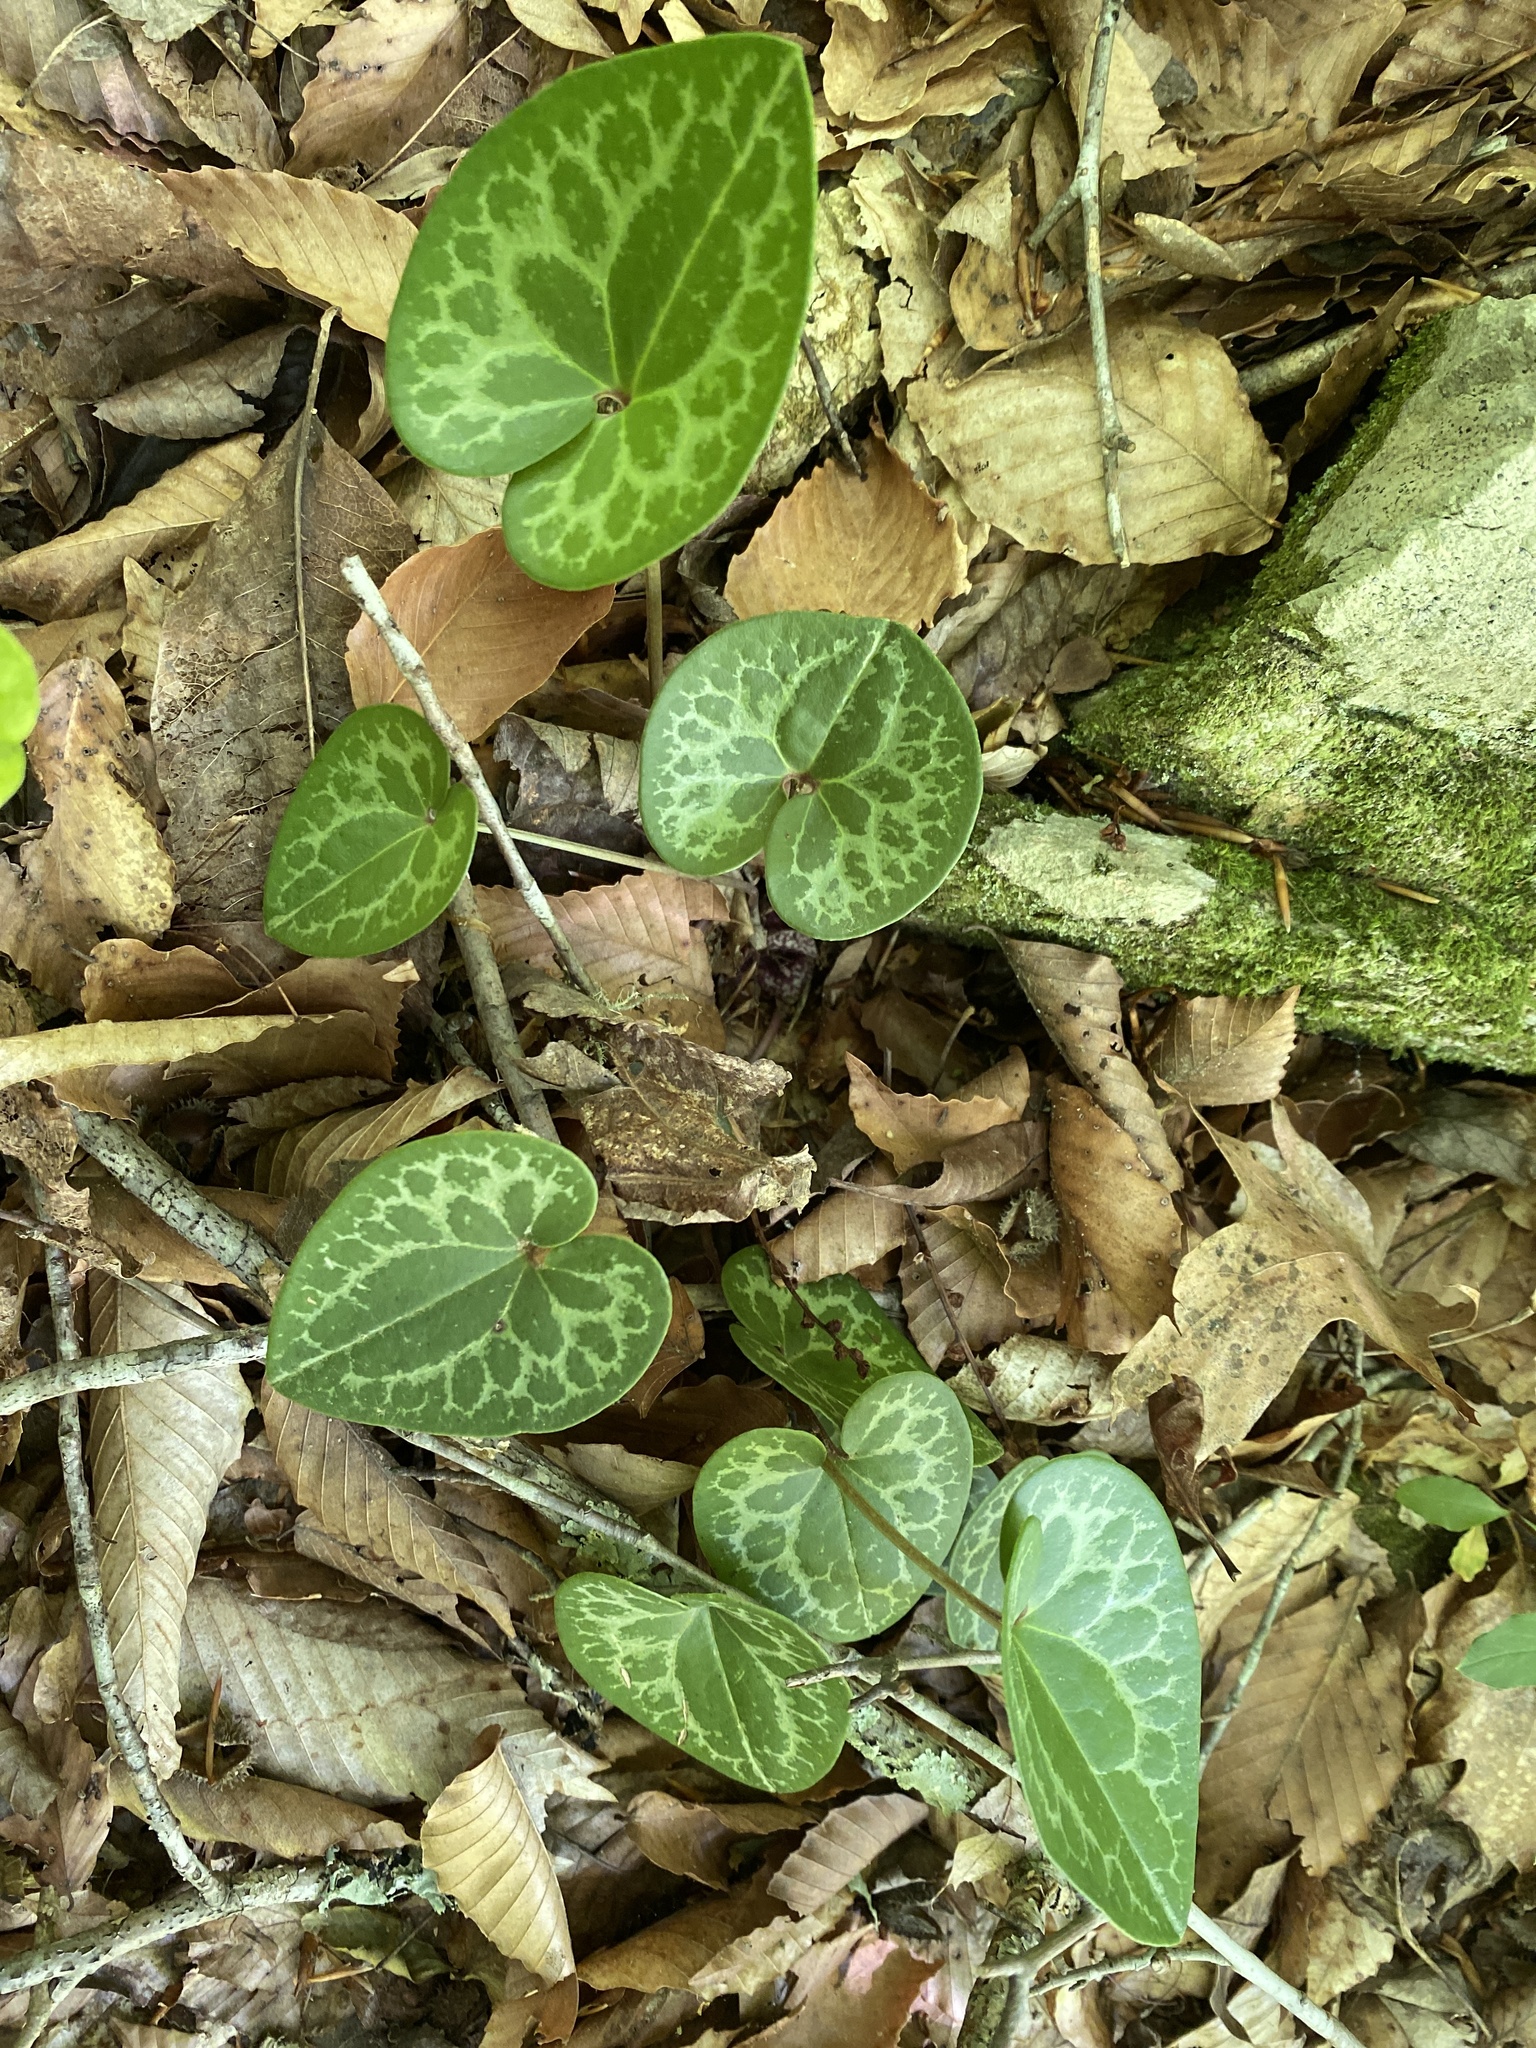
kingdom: Plantae
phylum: Tracheophyta
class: Magnoliopsida
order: Piperales
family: Aristolochiaceae
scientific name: Aristolochiaceae
